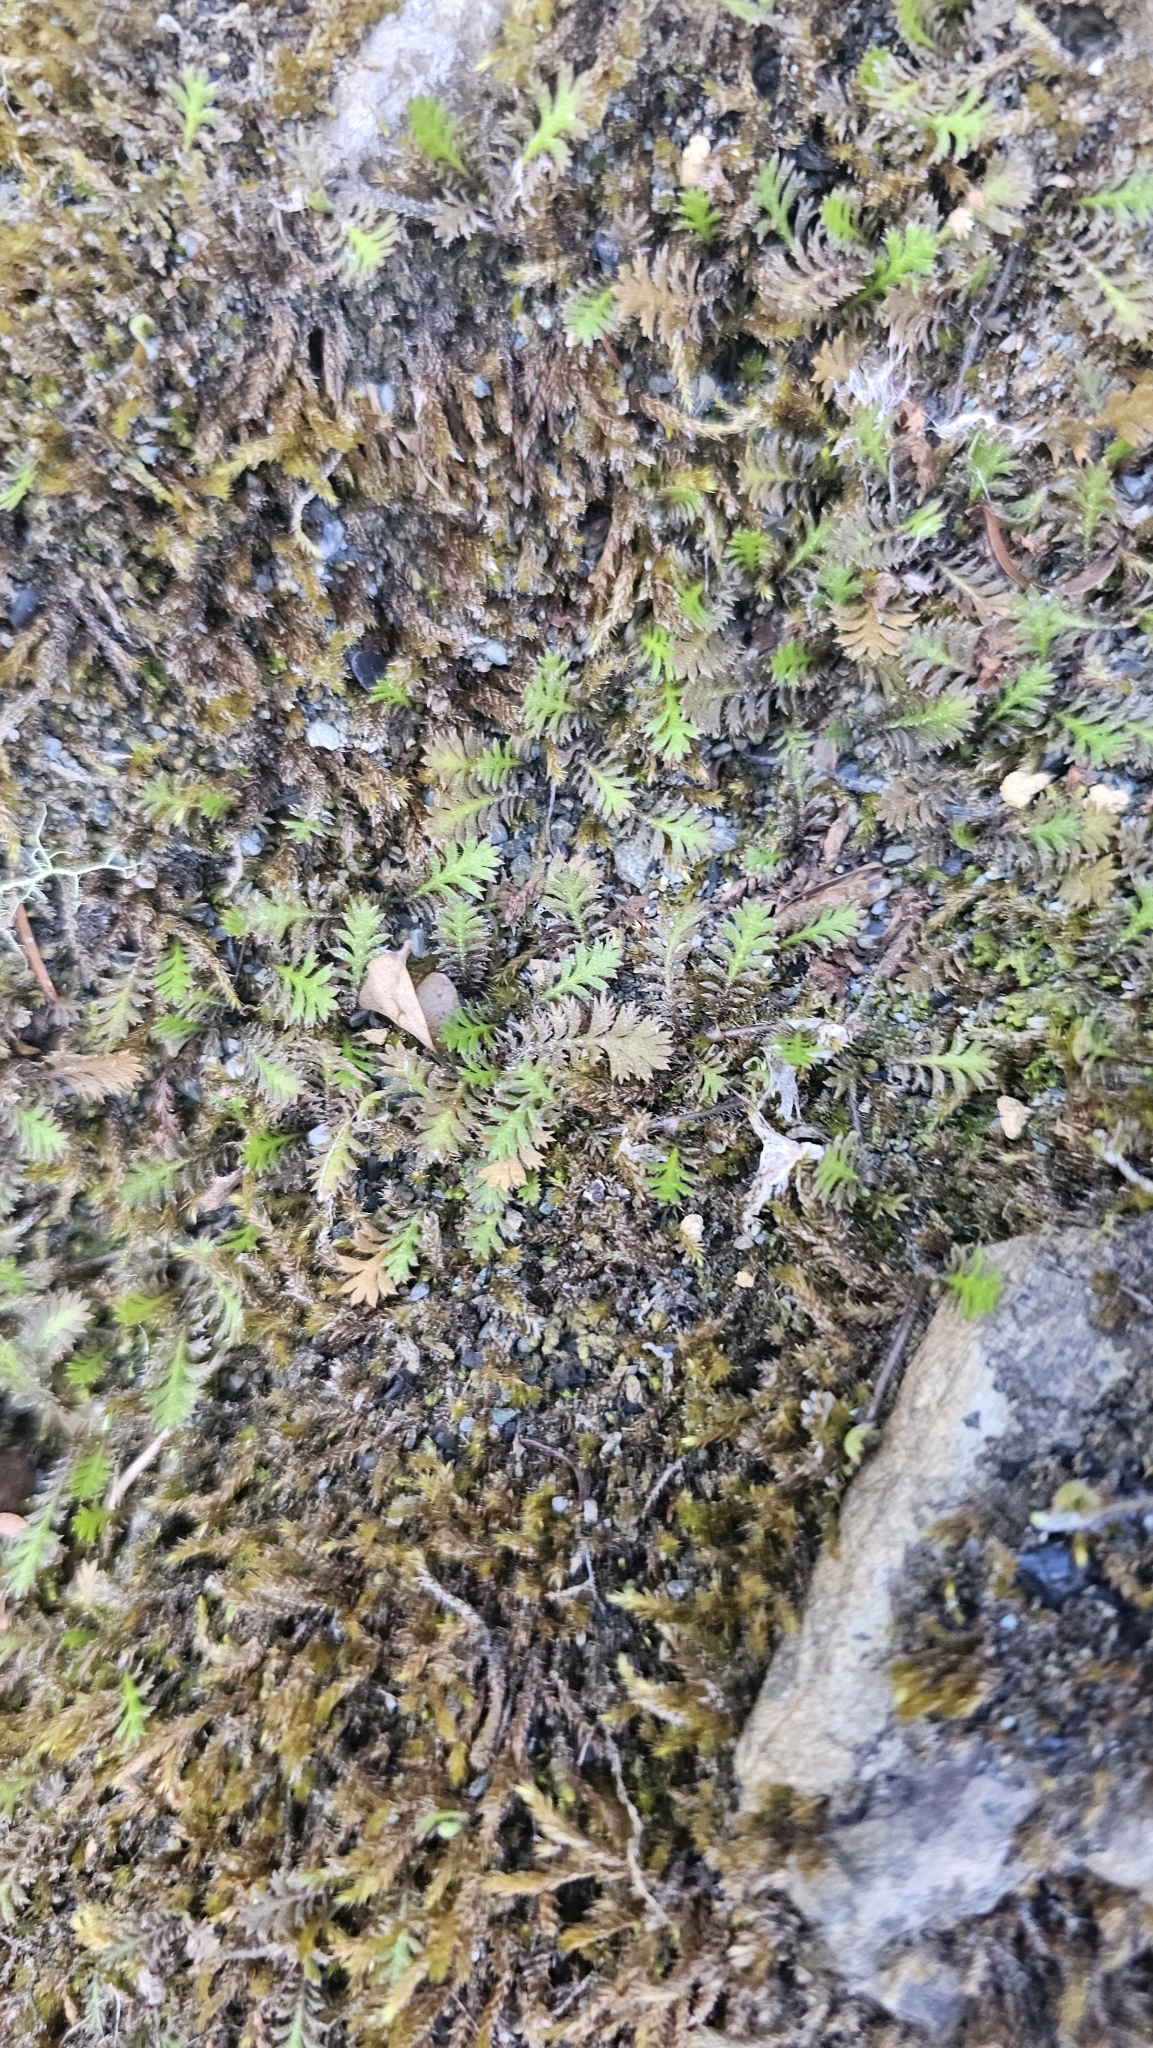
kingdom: Plantae
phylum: Tracheophyta
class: Magnoliopsida
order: Asterales
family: Asteraceae
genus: Leptinella
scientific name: Leptinella squalida
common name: New zealand brass-buttons
